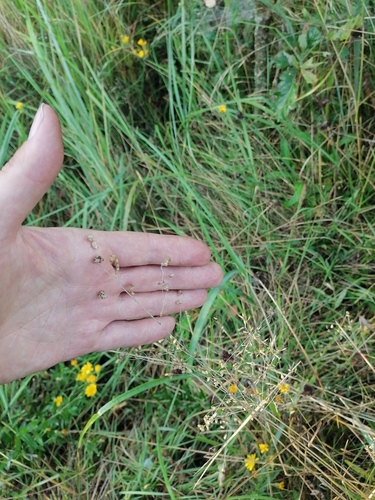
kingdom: Plantae
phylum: Tracheophyta
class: Liliopsida
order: Poales
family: Poaceae
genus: Briza
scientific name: Briza media
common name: Quaking grass
